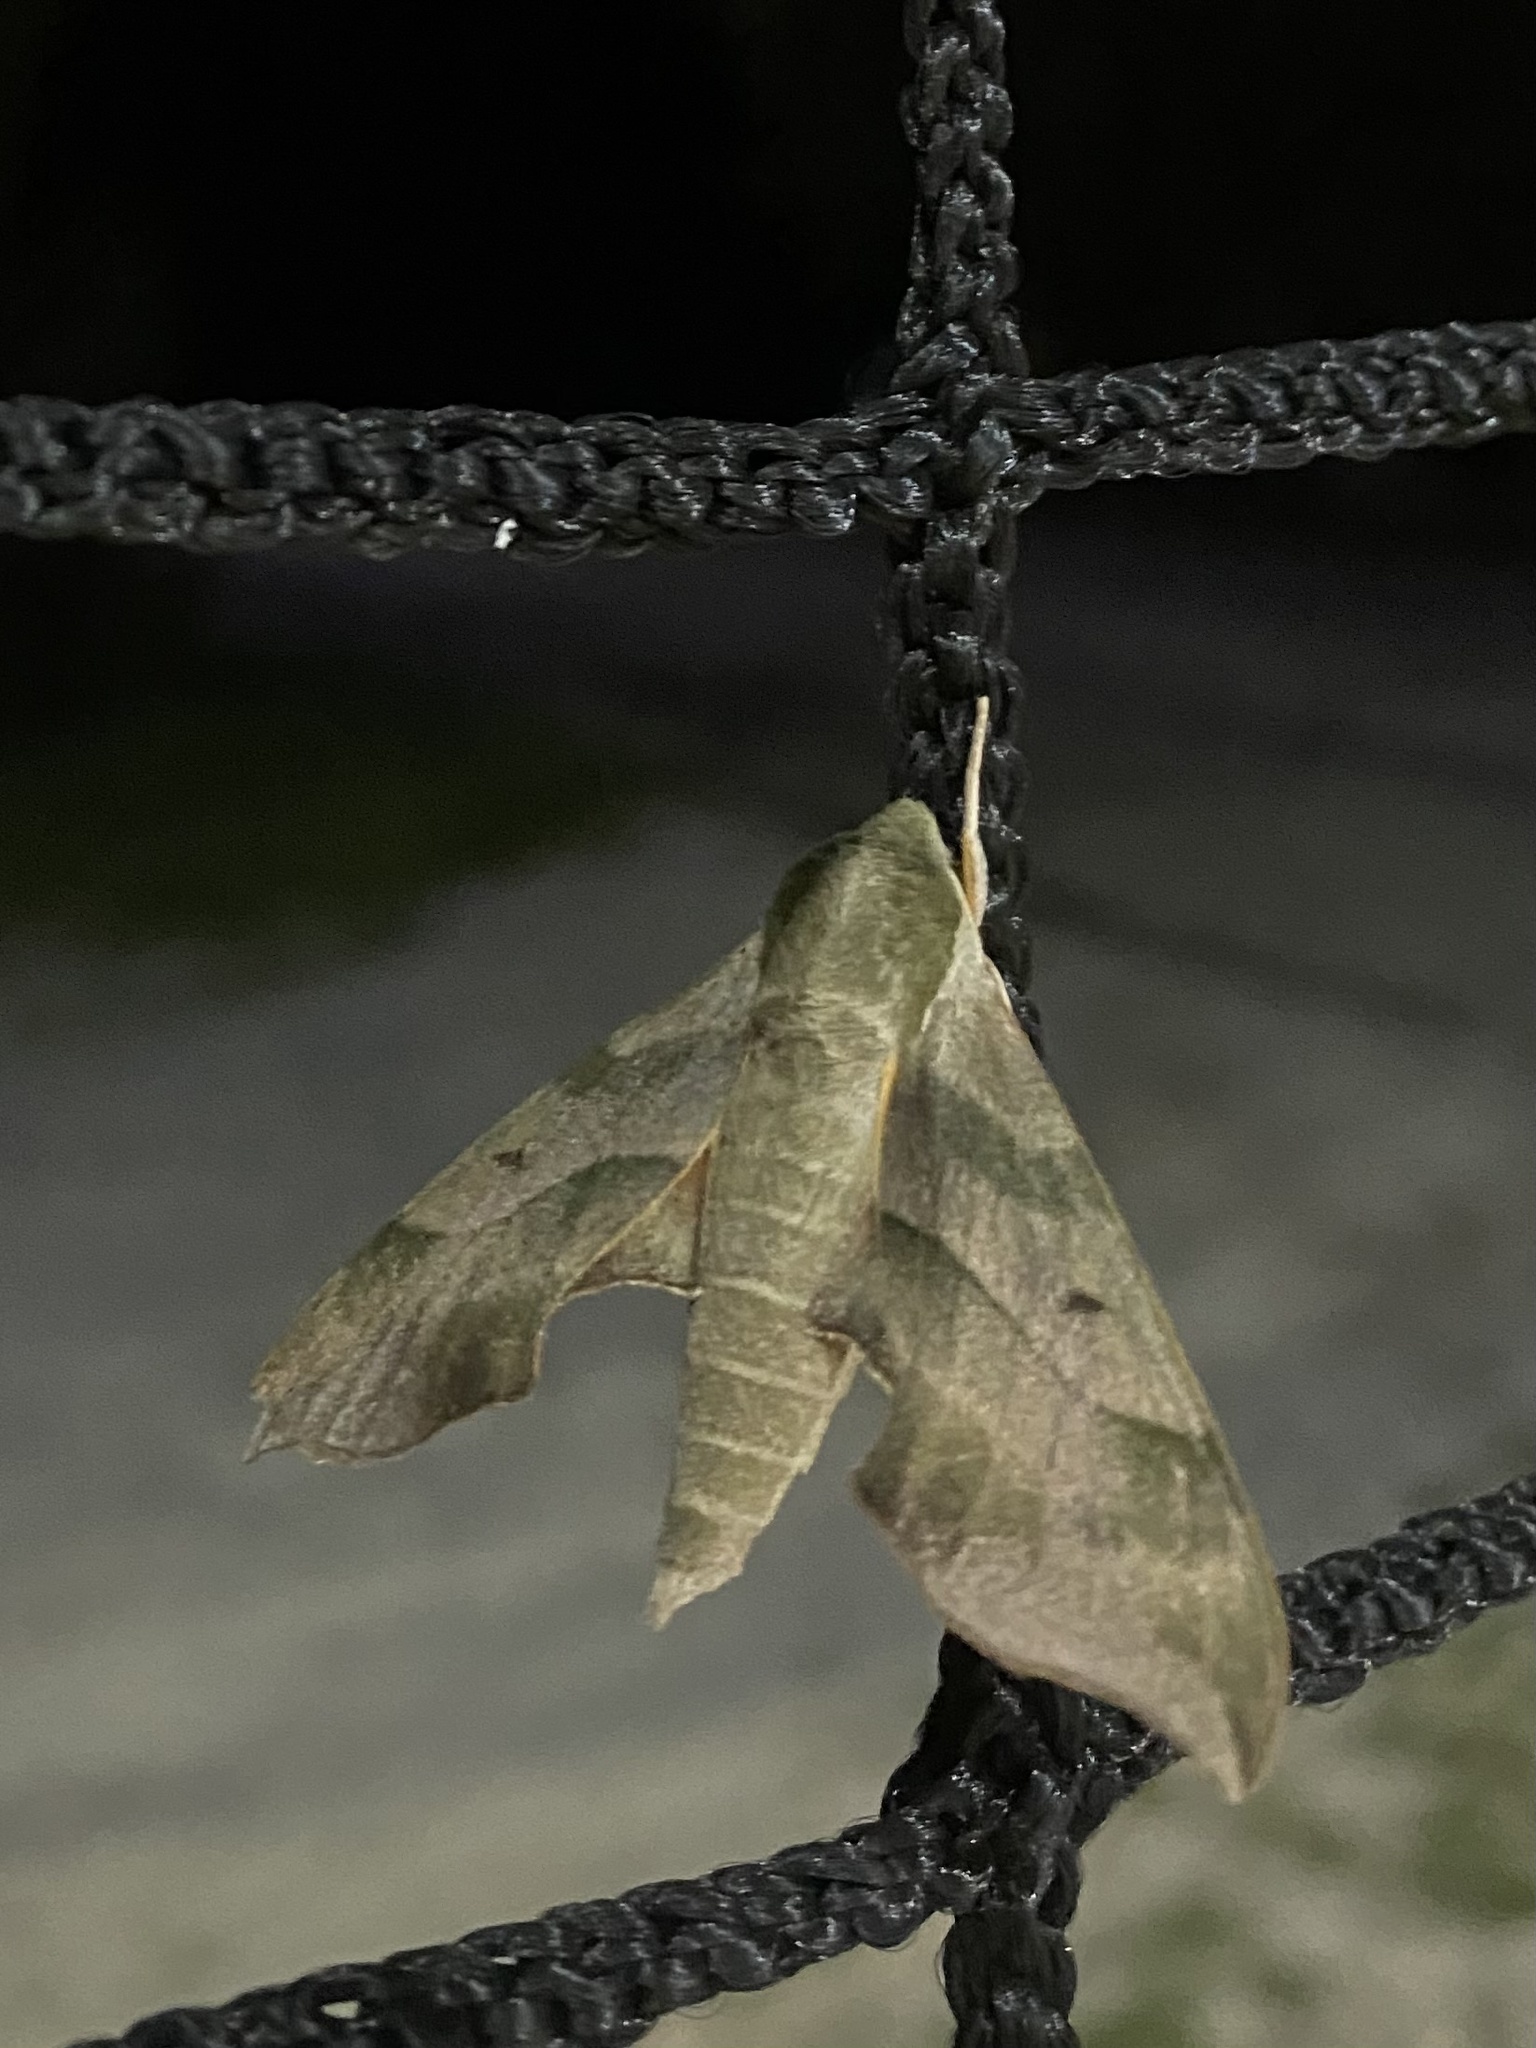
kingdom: Animalia
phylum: Arthropoda
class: Insecta
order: Lepidoptera
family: Sphingidae
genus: Darapsa
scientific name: Darapsa myron
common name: Hog sphinx
